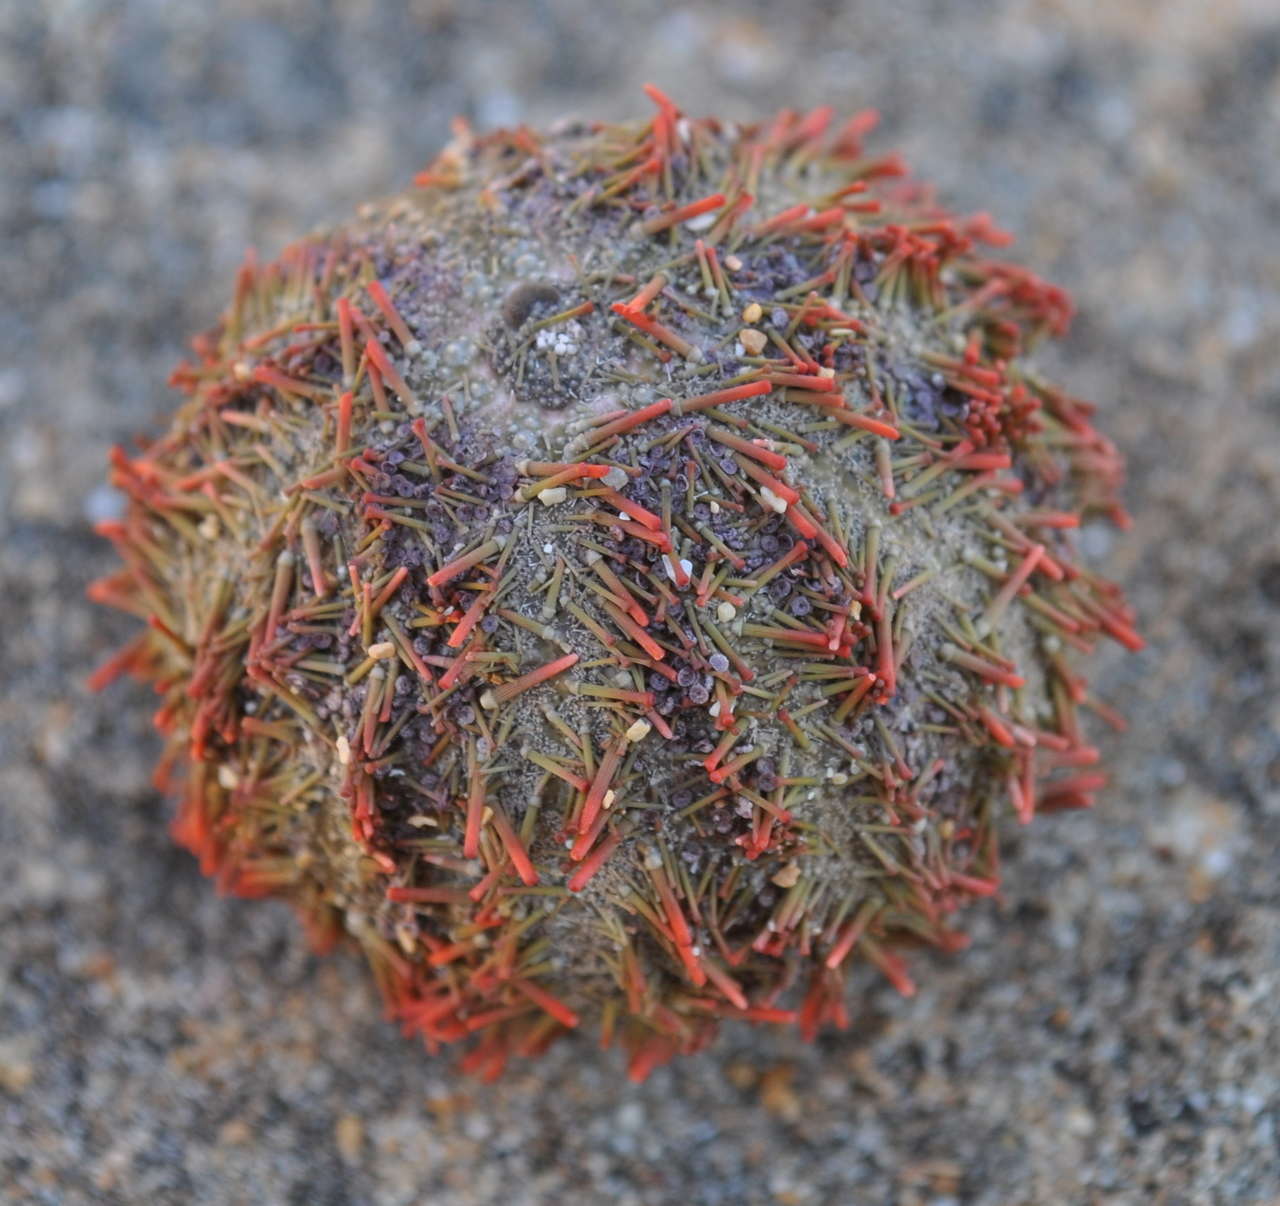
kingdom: Animalia
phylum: Echinodermata
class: Echinoidea
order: Camarodonta
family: Temnopleuridae
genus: Holopneustes
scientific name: Holopneustes porosissimus
